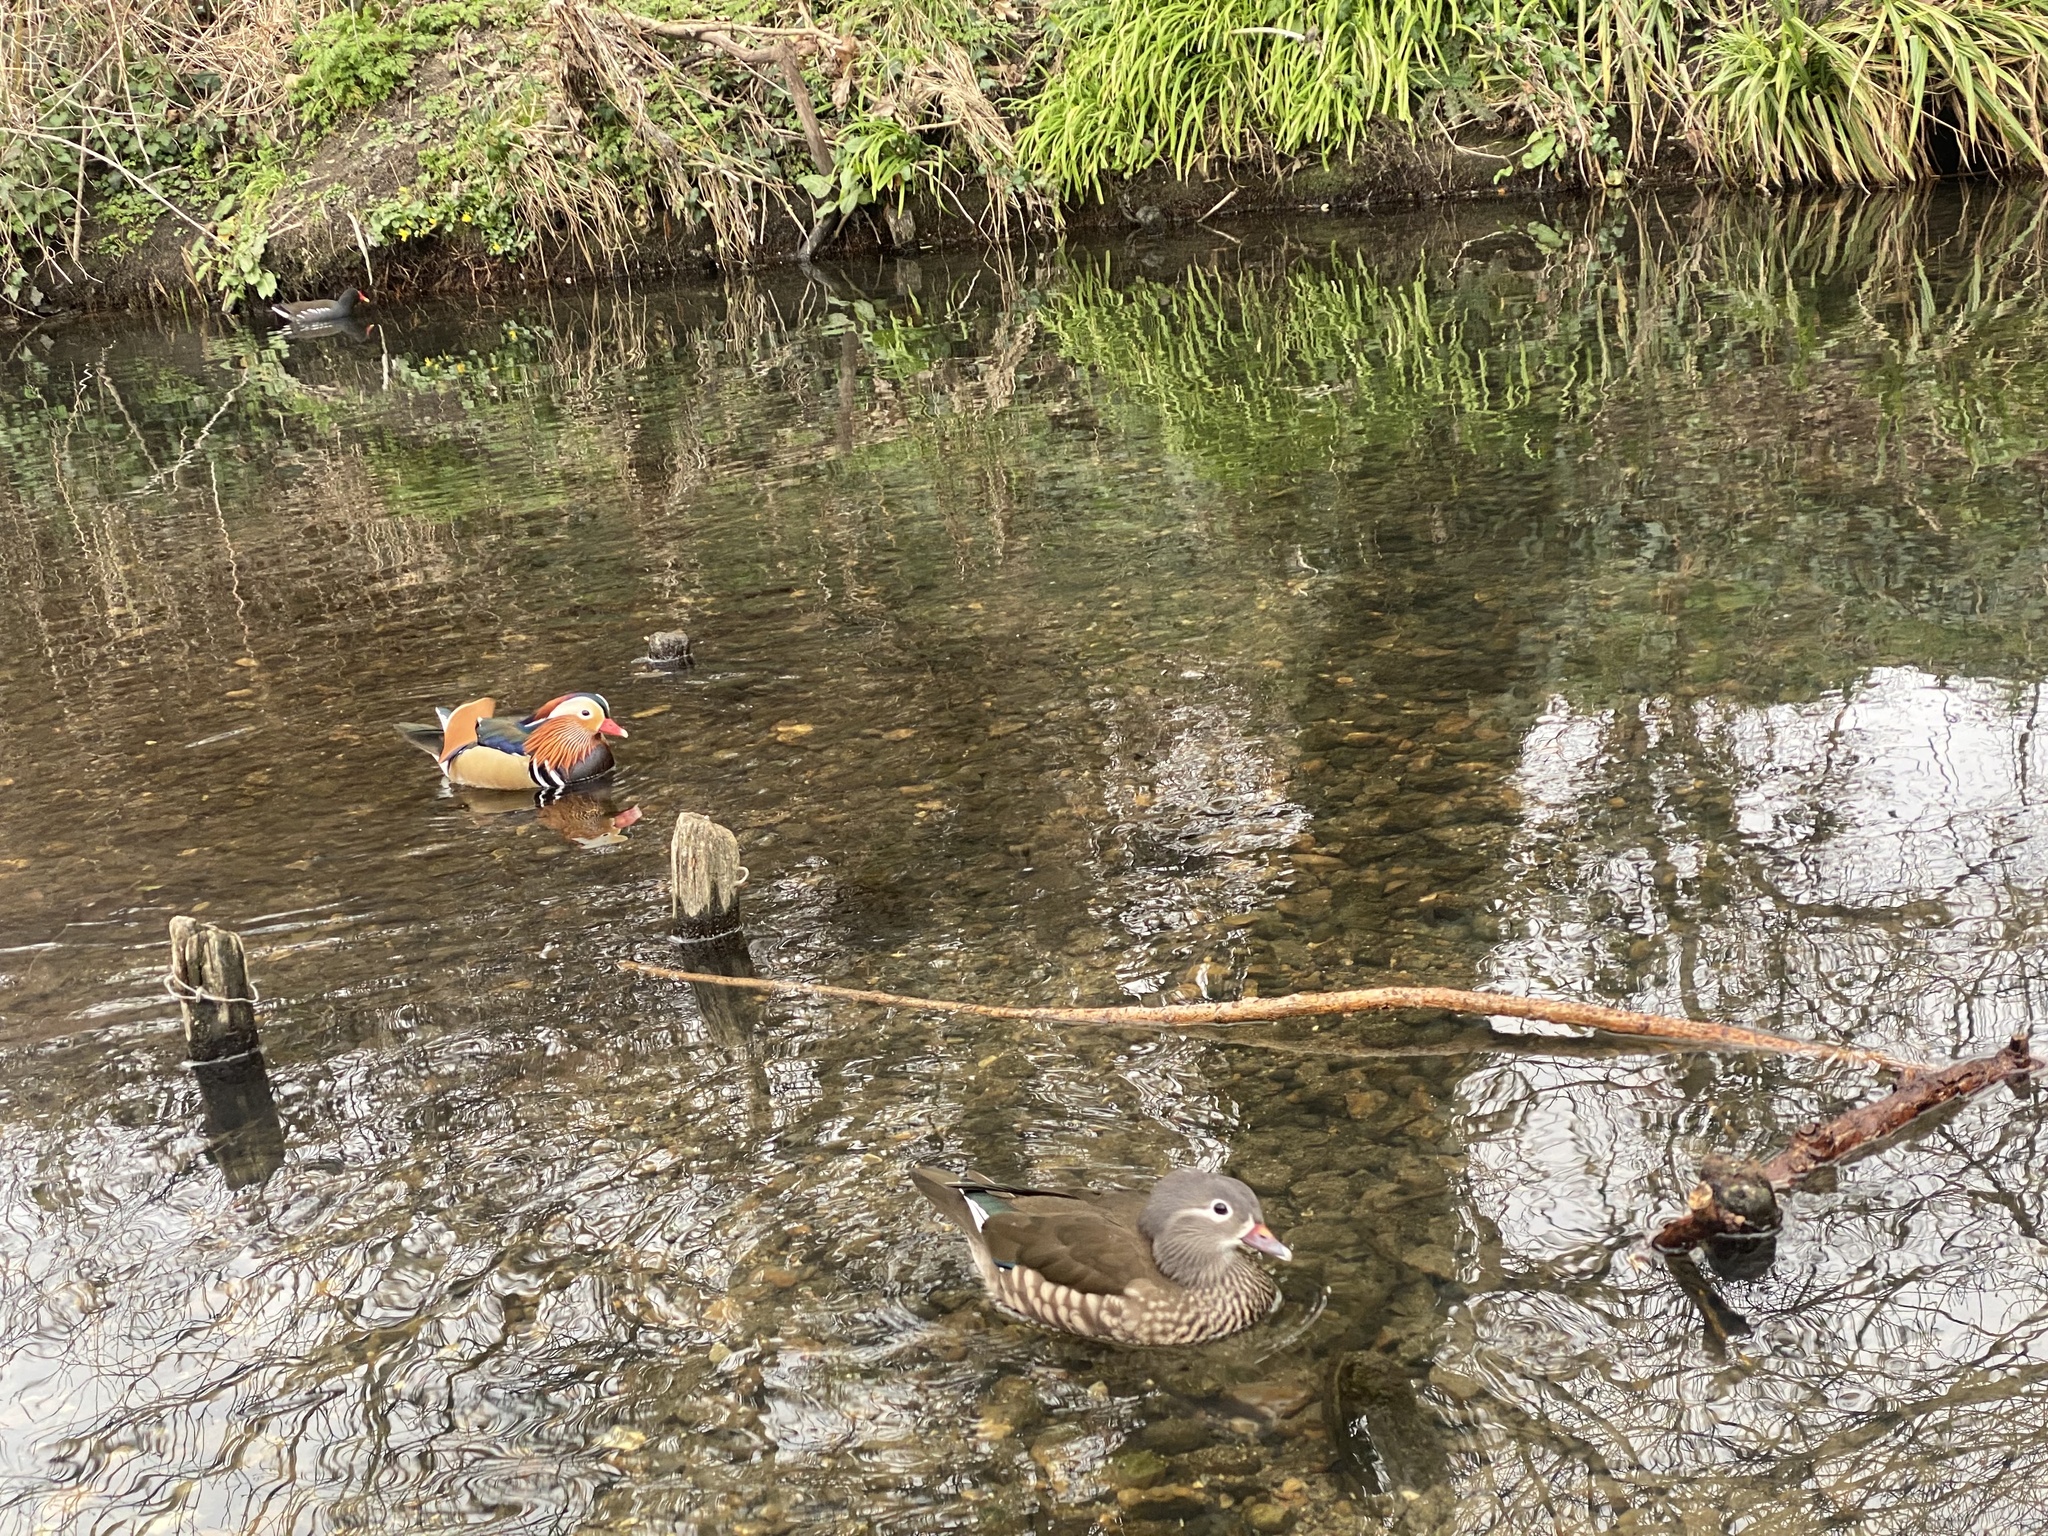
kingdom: Animalia
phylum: Chordata
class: Aves
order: Anseriformes
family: Anatidae
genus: Aix
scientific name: Aix galericulata
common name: Mandarin duck
